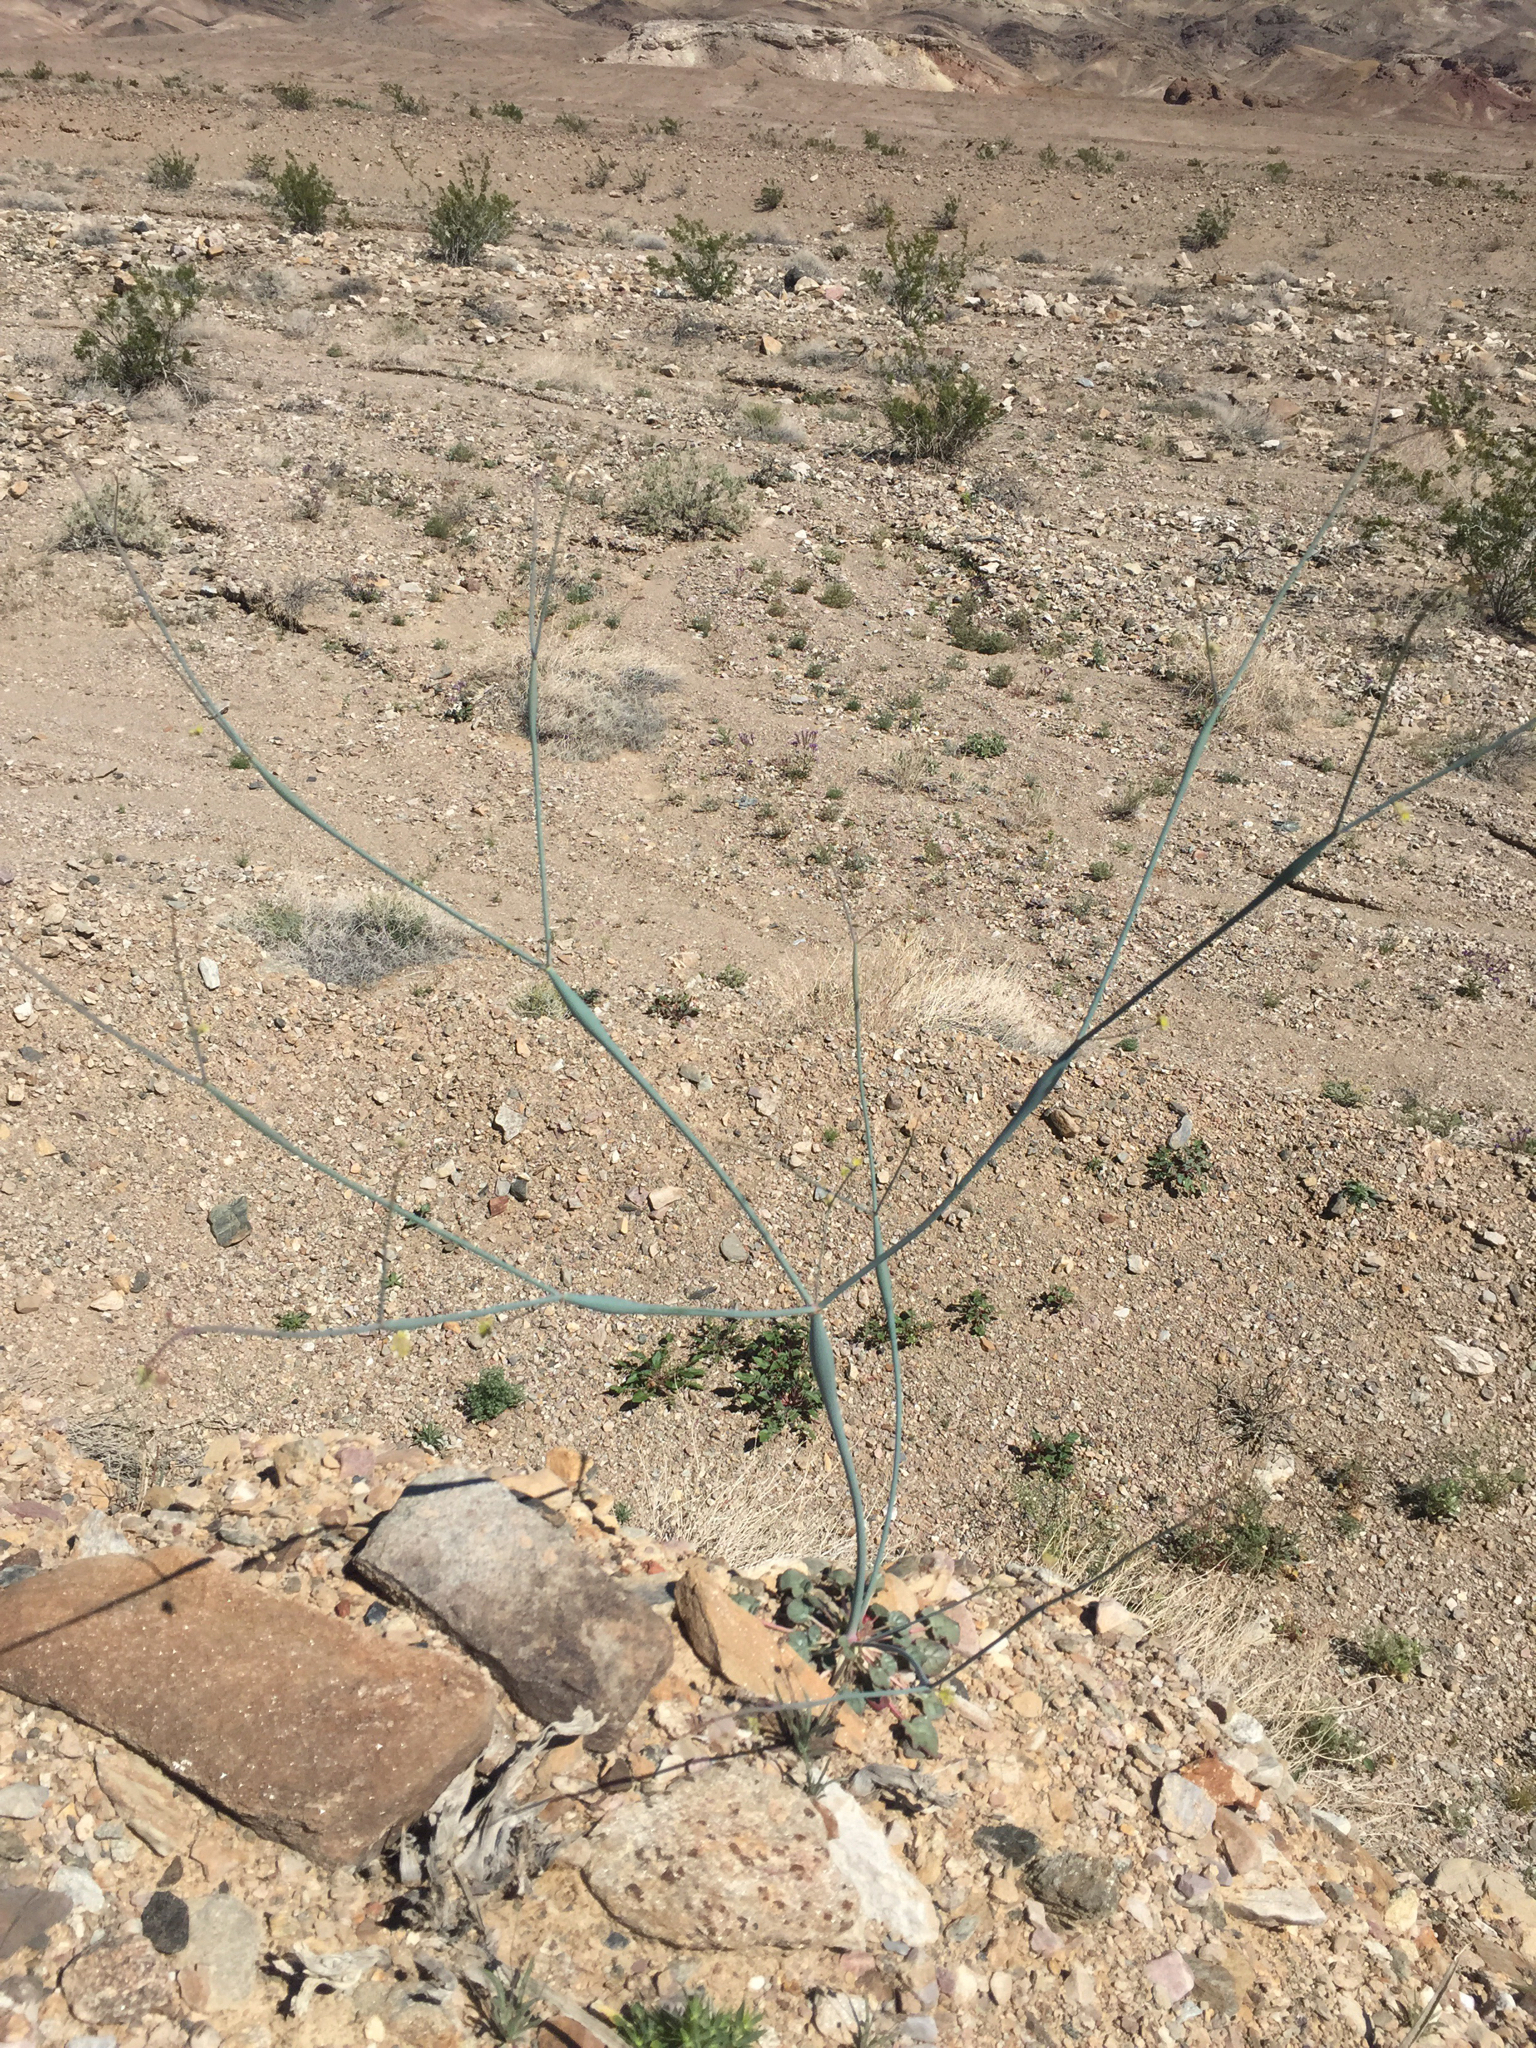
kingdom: Plantae
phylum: Tracheophyta
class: Magnoliopsida
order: Caryophyllales
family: Polygonaceae
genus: Eriogonum
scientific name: Eriogonum inflatum
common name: Desert trumpet
